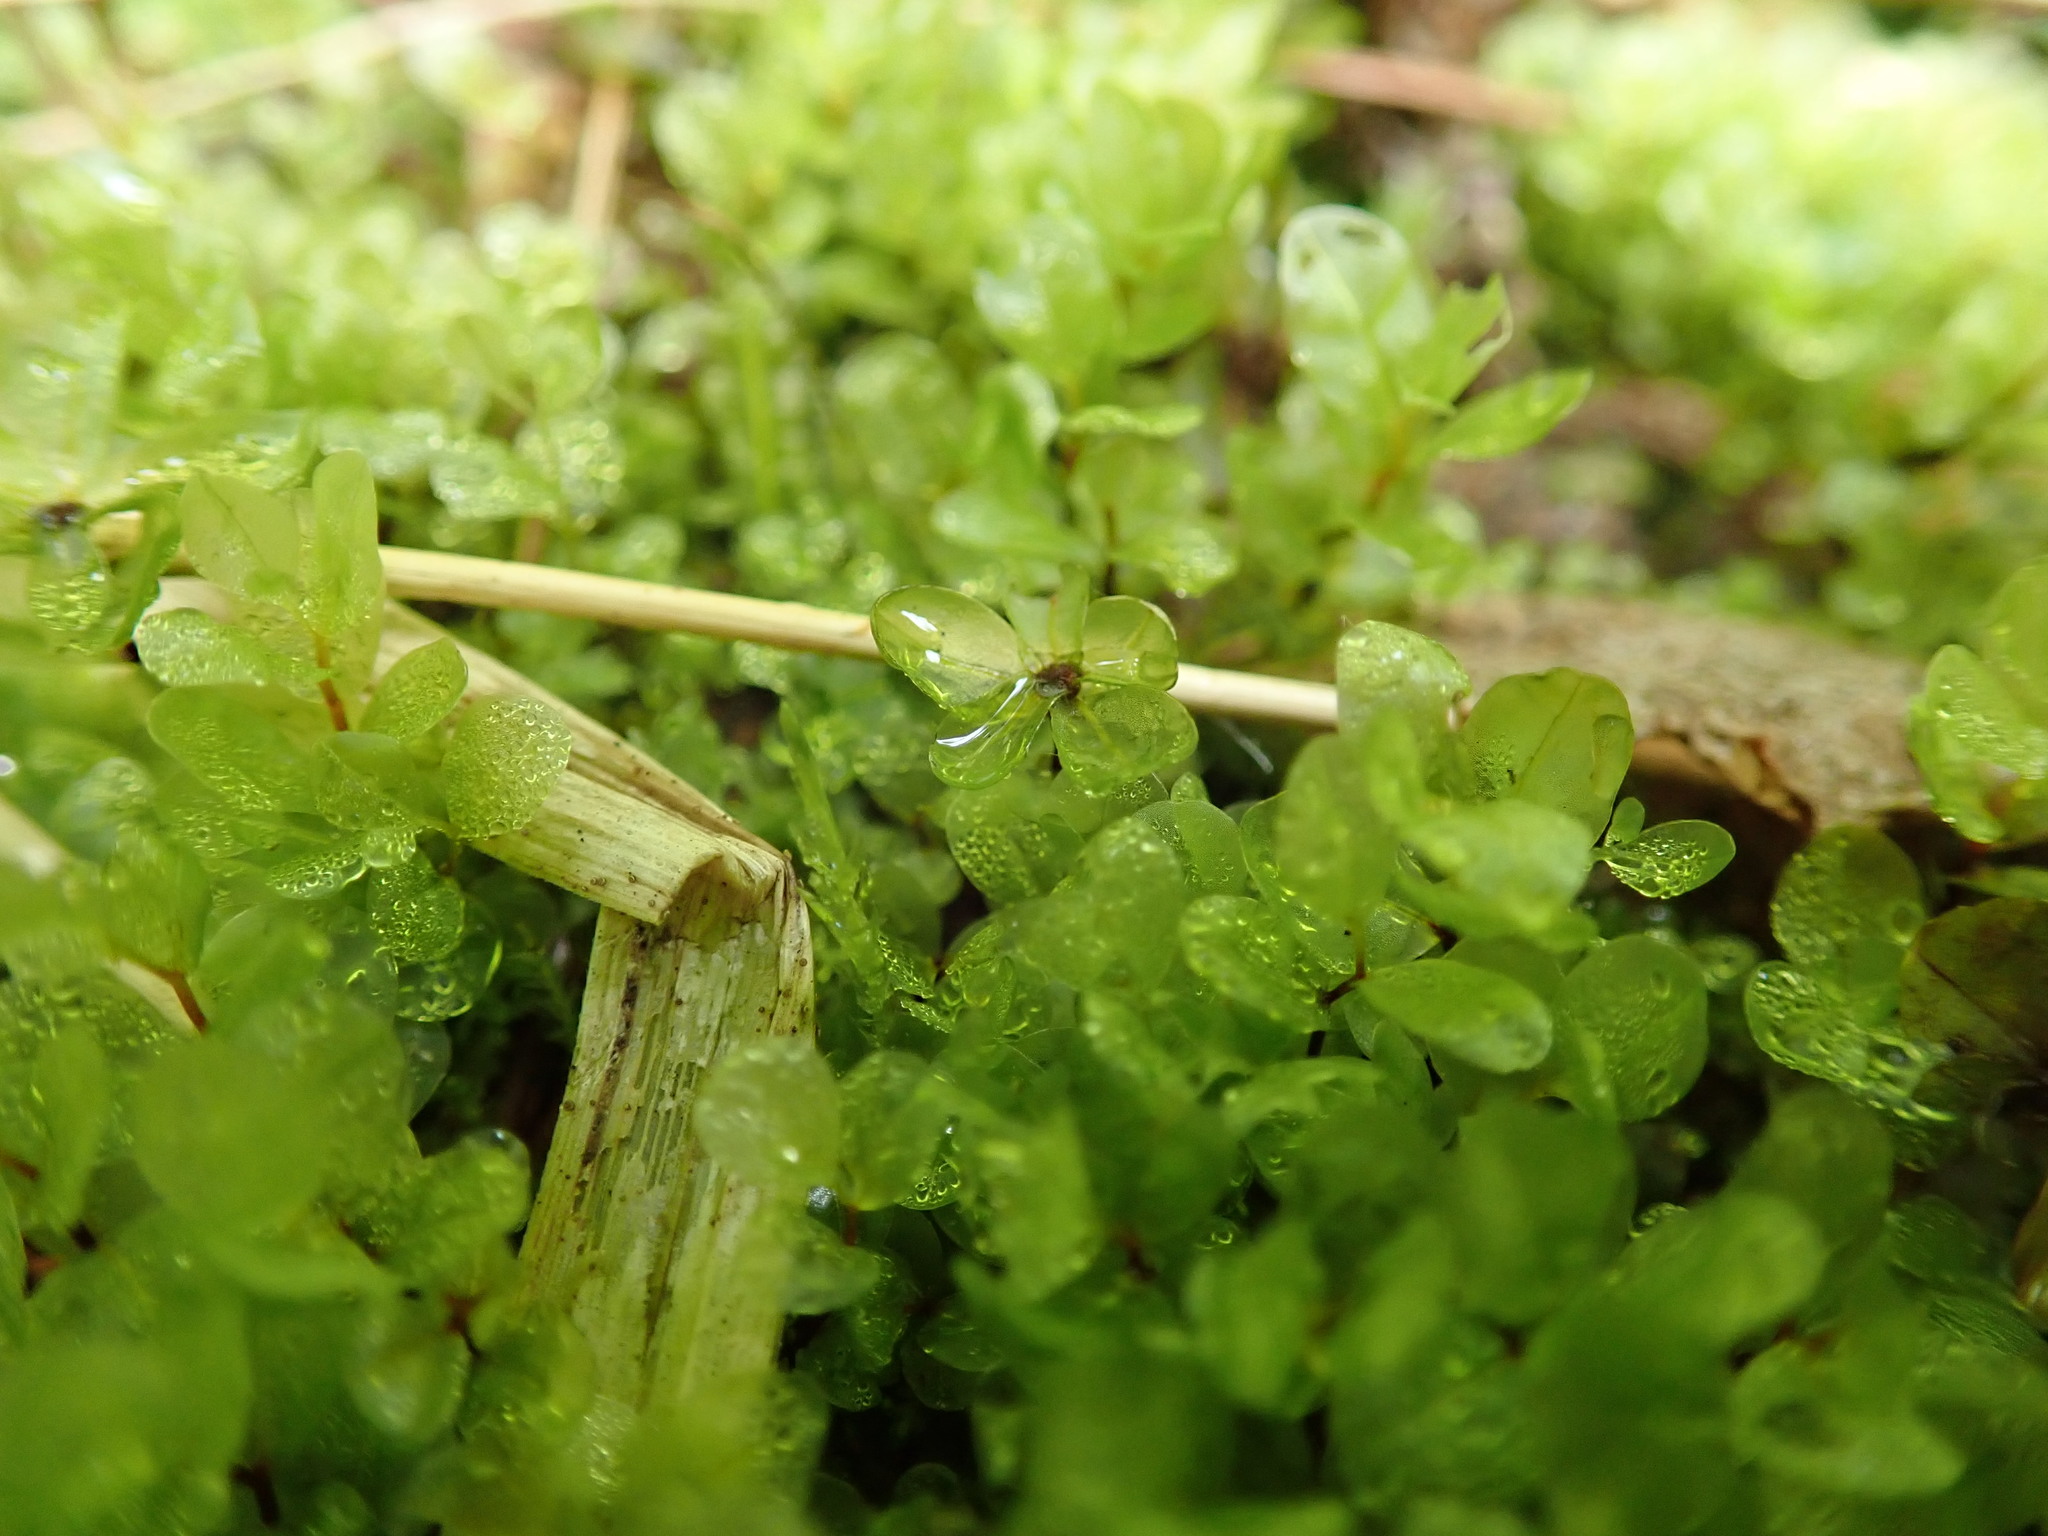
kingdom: Plantae
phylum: Bryophyta
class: Bryopsida
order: Bryales
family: Mniaceae
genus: Rhizomnium
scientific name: Rhizomnium magnifolium
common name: Large-leaved leafy moss
